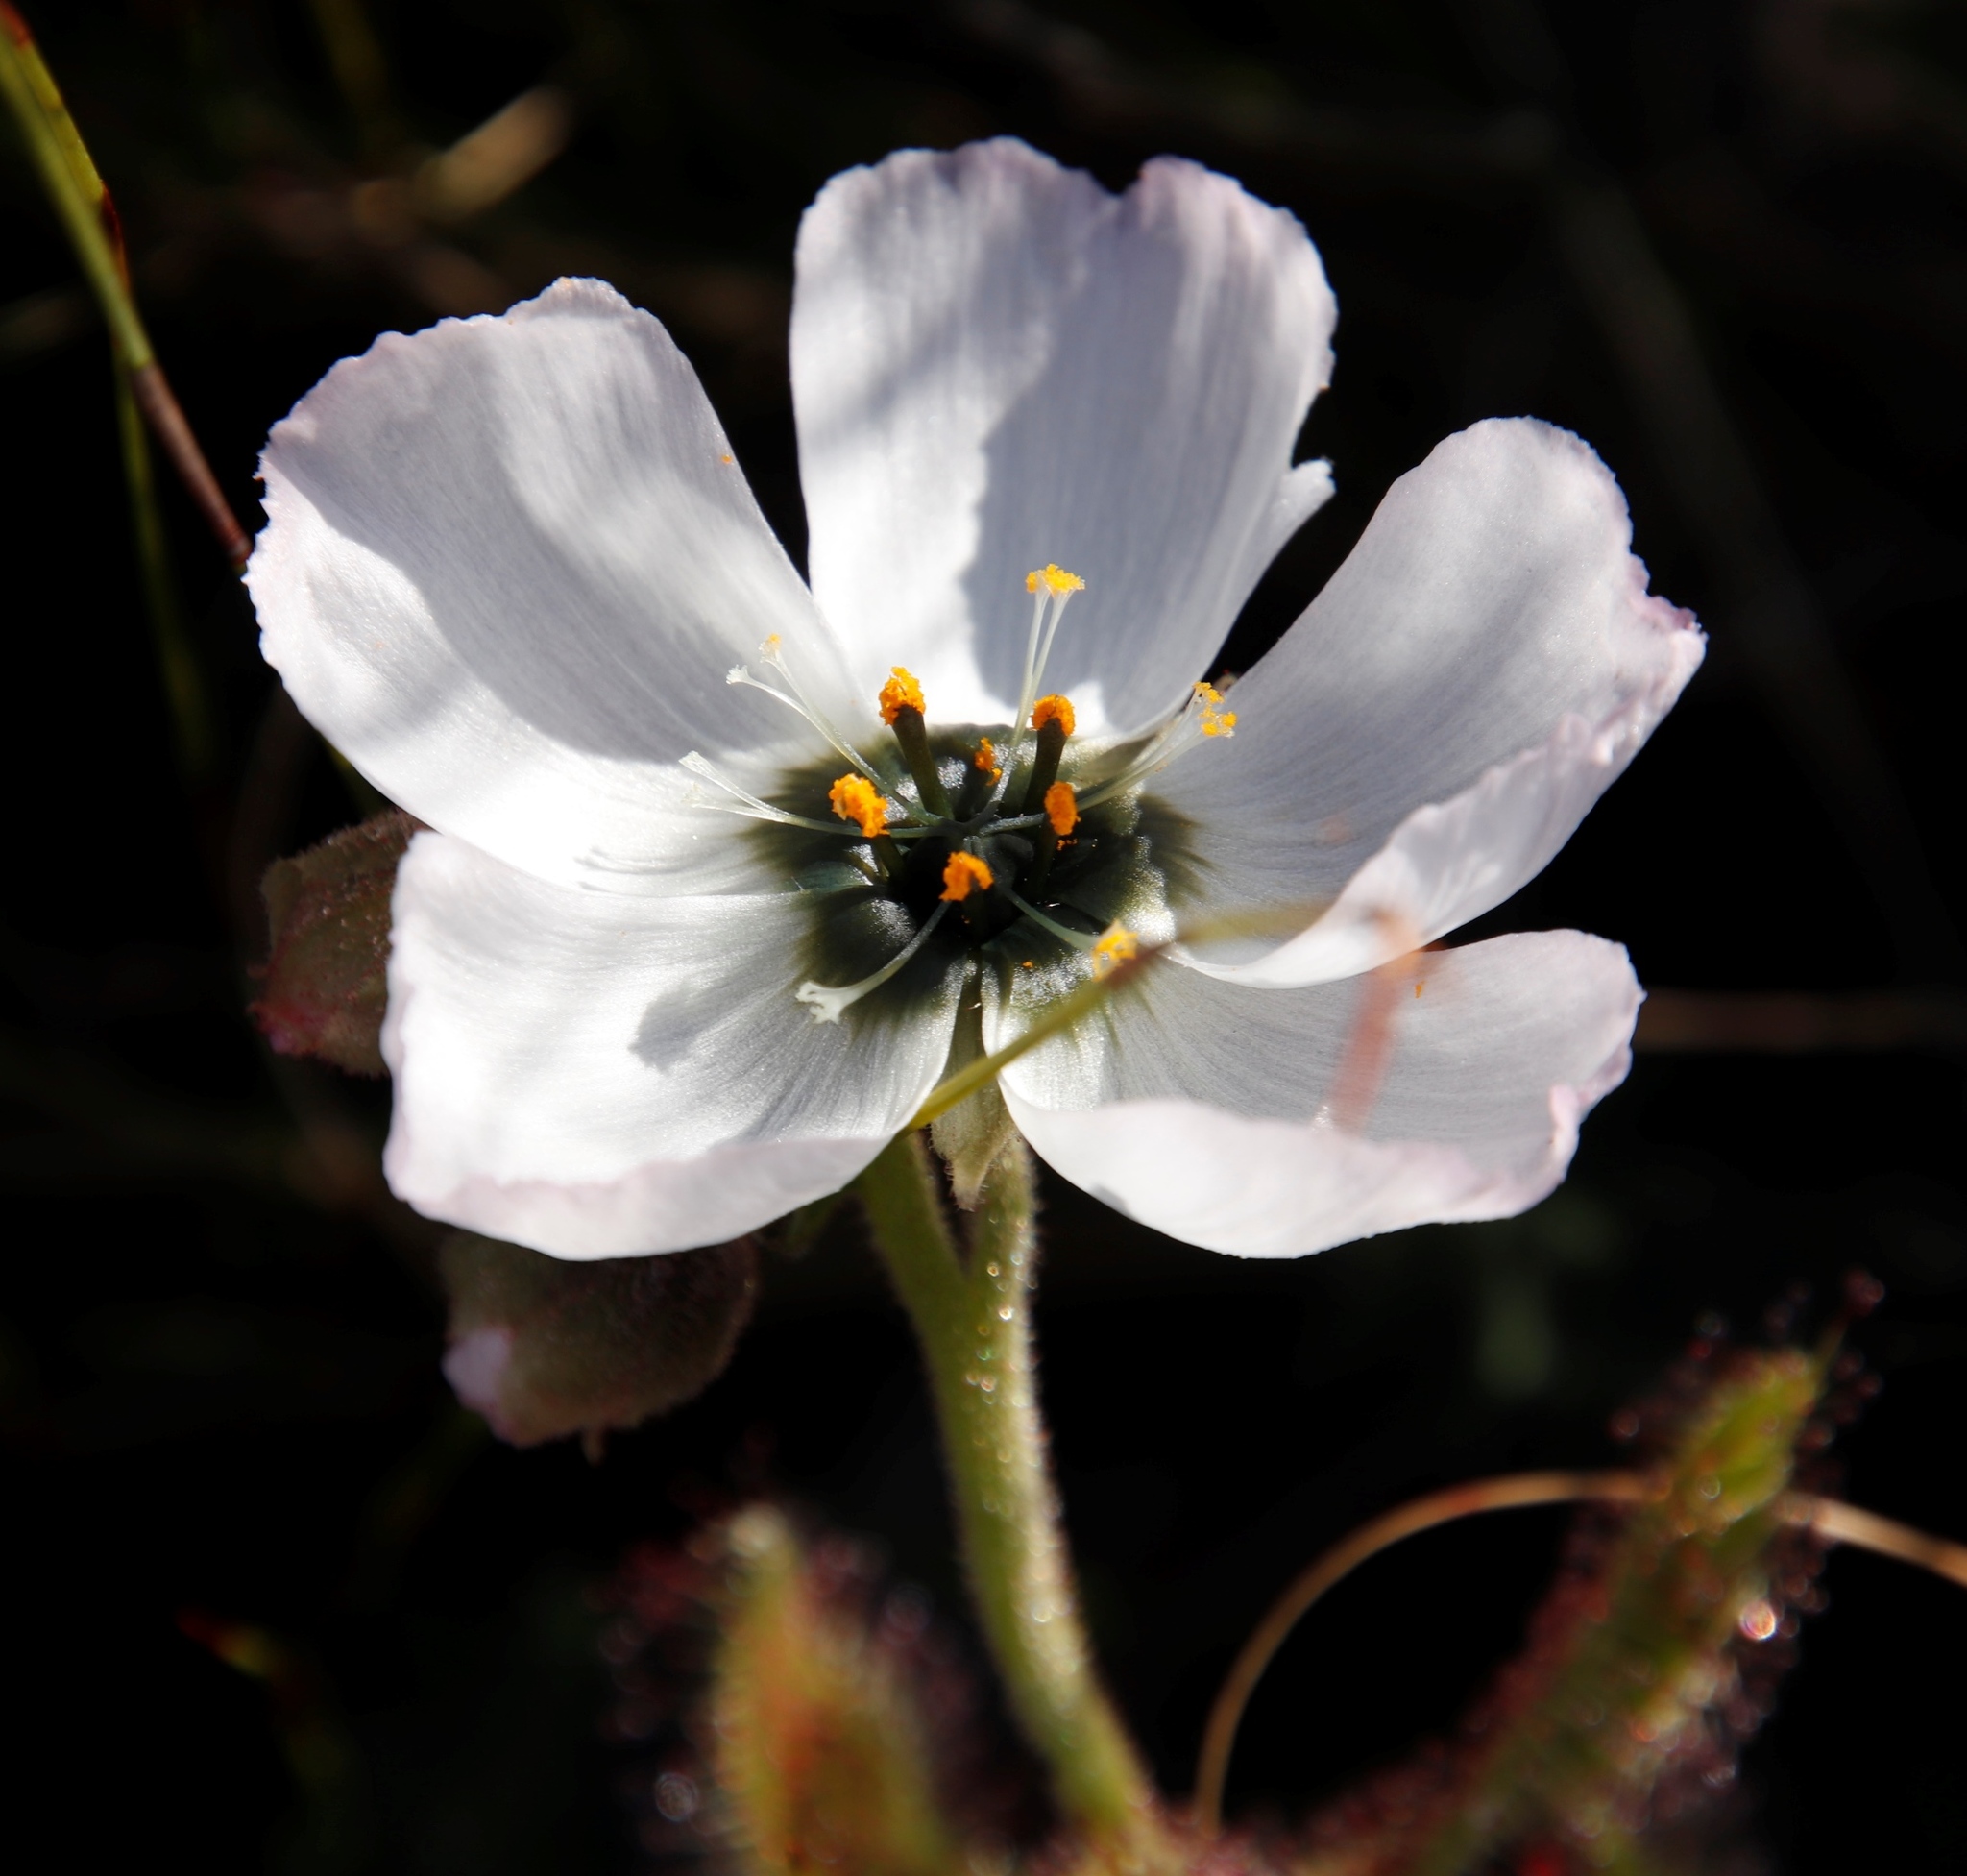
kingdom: Plantae
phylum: Tracheophyta
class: Magnoliopsida
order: Caryophyllales
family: Droseraceae
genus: Drosera
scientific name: Drosera cistiflora
